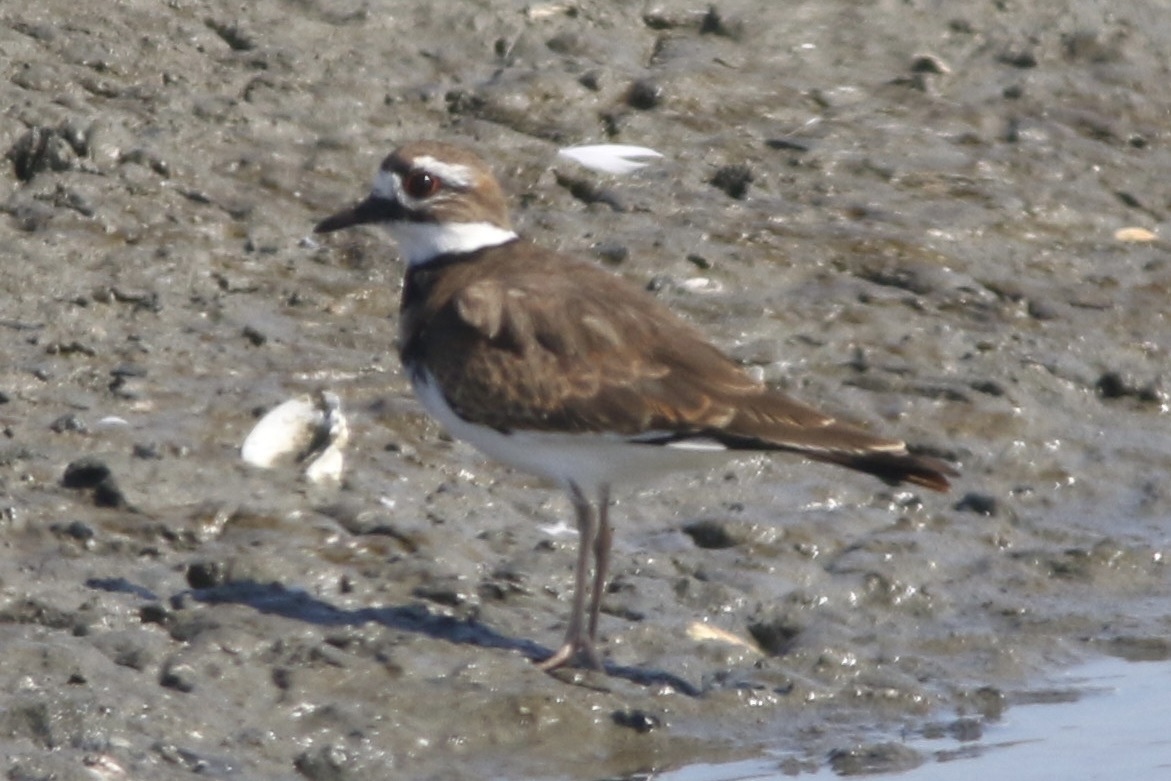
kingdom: Animalia
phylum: Chordata
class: Aves
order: Charadriiformes
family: Charadriidae
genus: Charadrius
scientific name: Charadrius vociferus
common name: Killdeer
